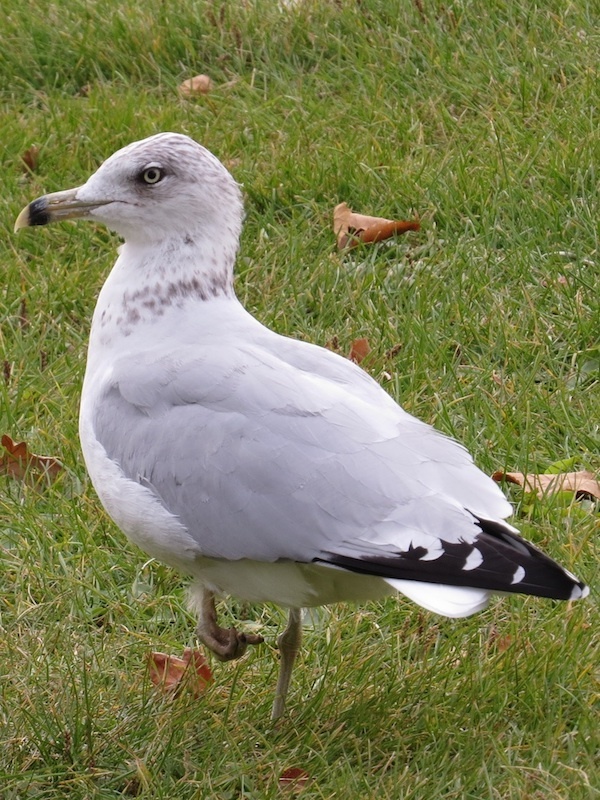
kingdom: Animalia
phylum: Chordata
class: Aves
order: Charadriiformes
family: Laridae
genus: Larus
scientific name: Larus delawarensis
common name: Ring-billed gull
